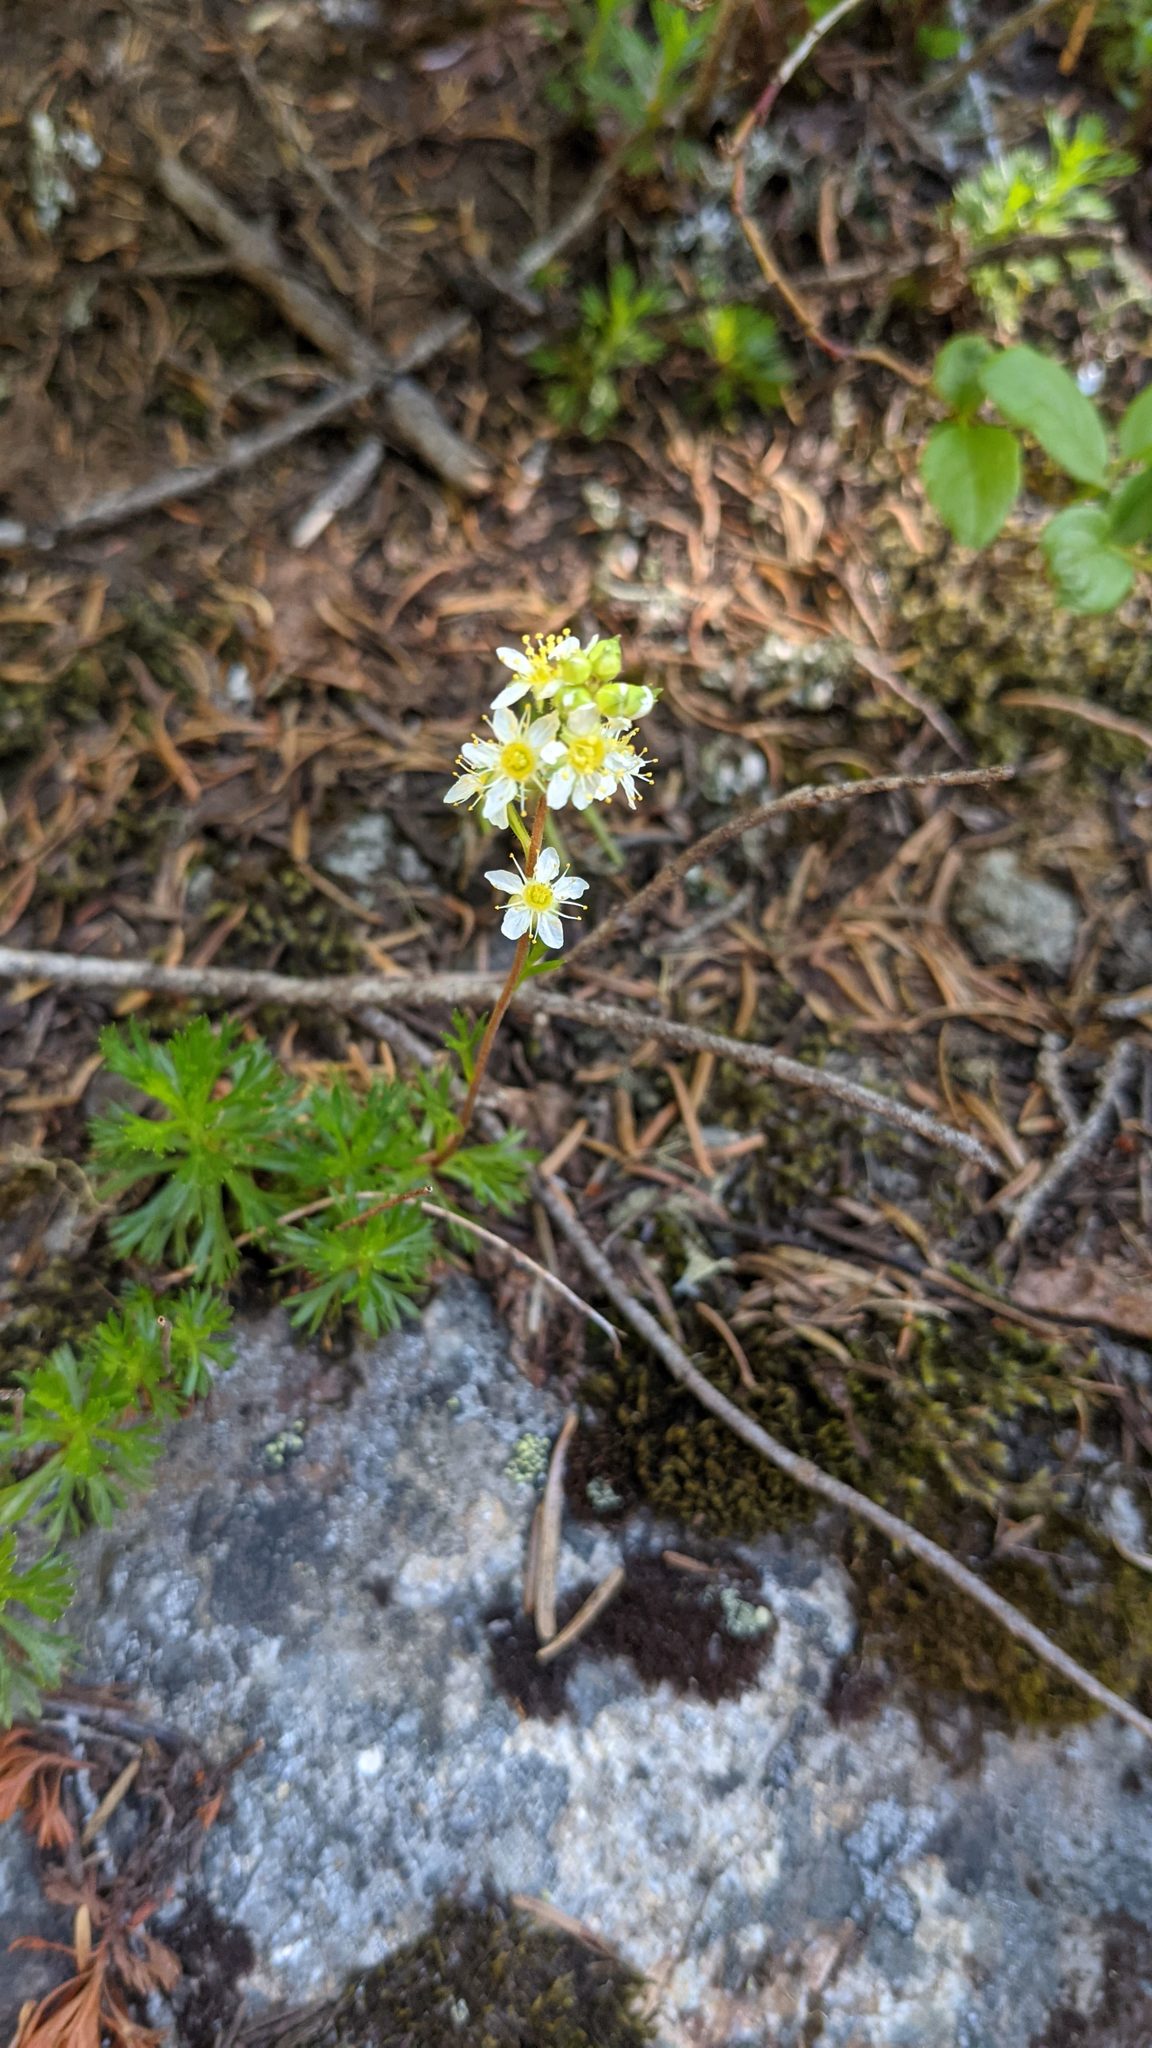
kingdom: Plantae
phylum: Tracheophyta
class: Magnoliopsida
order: Rosales
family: Rosaceae
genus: Luetkea
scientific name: Luetkea pectinata
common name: Partridgefoot
